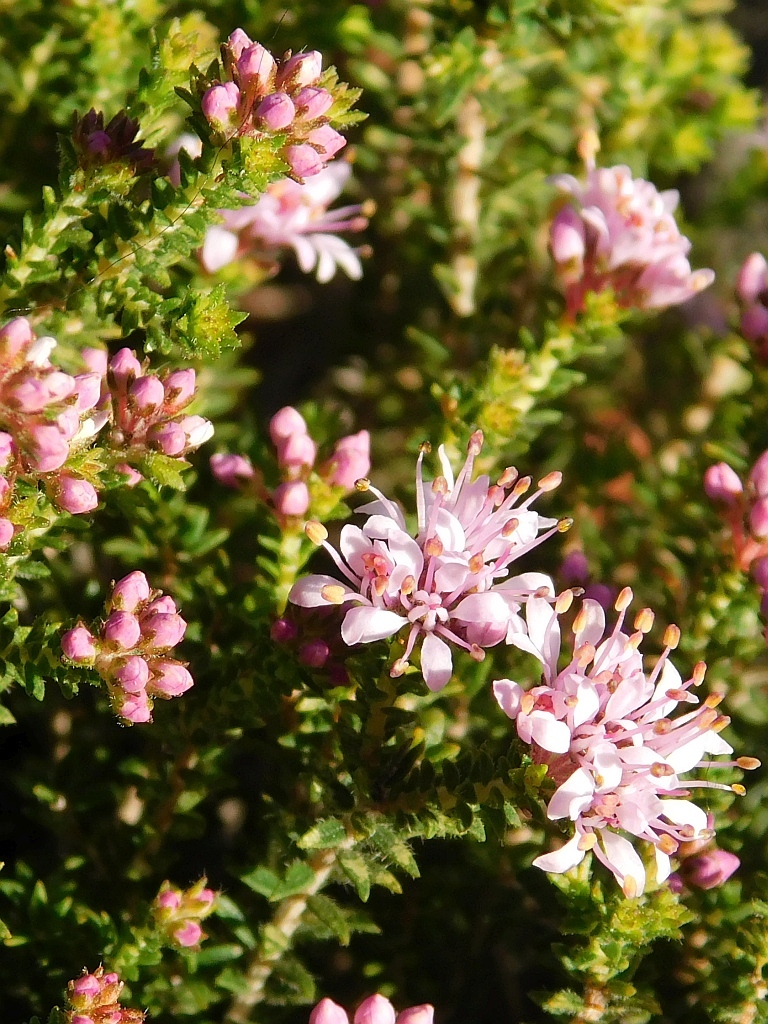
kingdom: Plantae
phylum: Tracheophyta
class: Magnoliopsida
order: Sapindales
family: Rutaceae
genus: Agathosma
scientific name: Agathosma capensis
